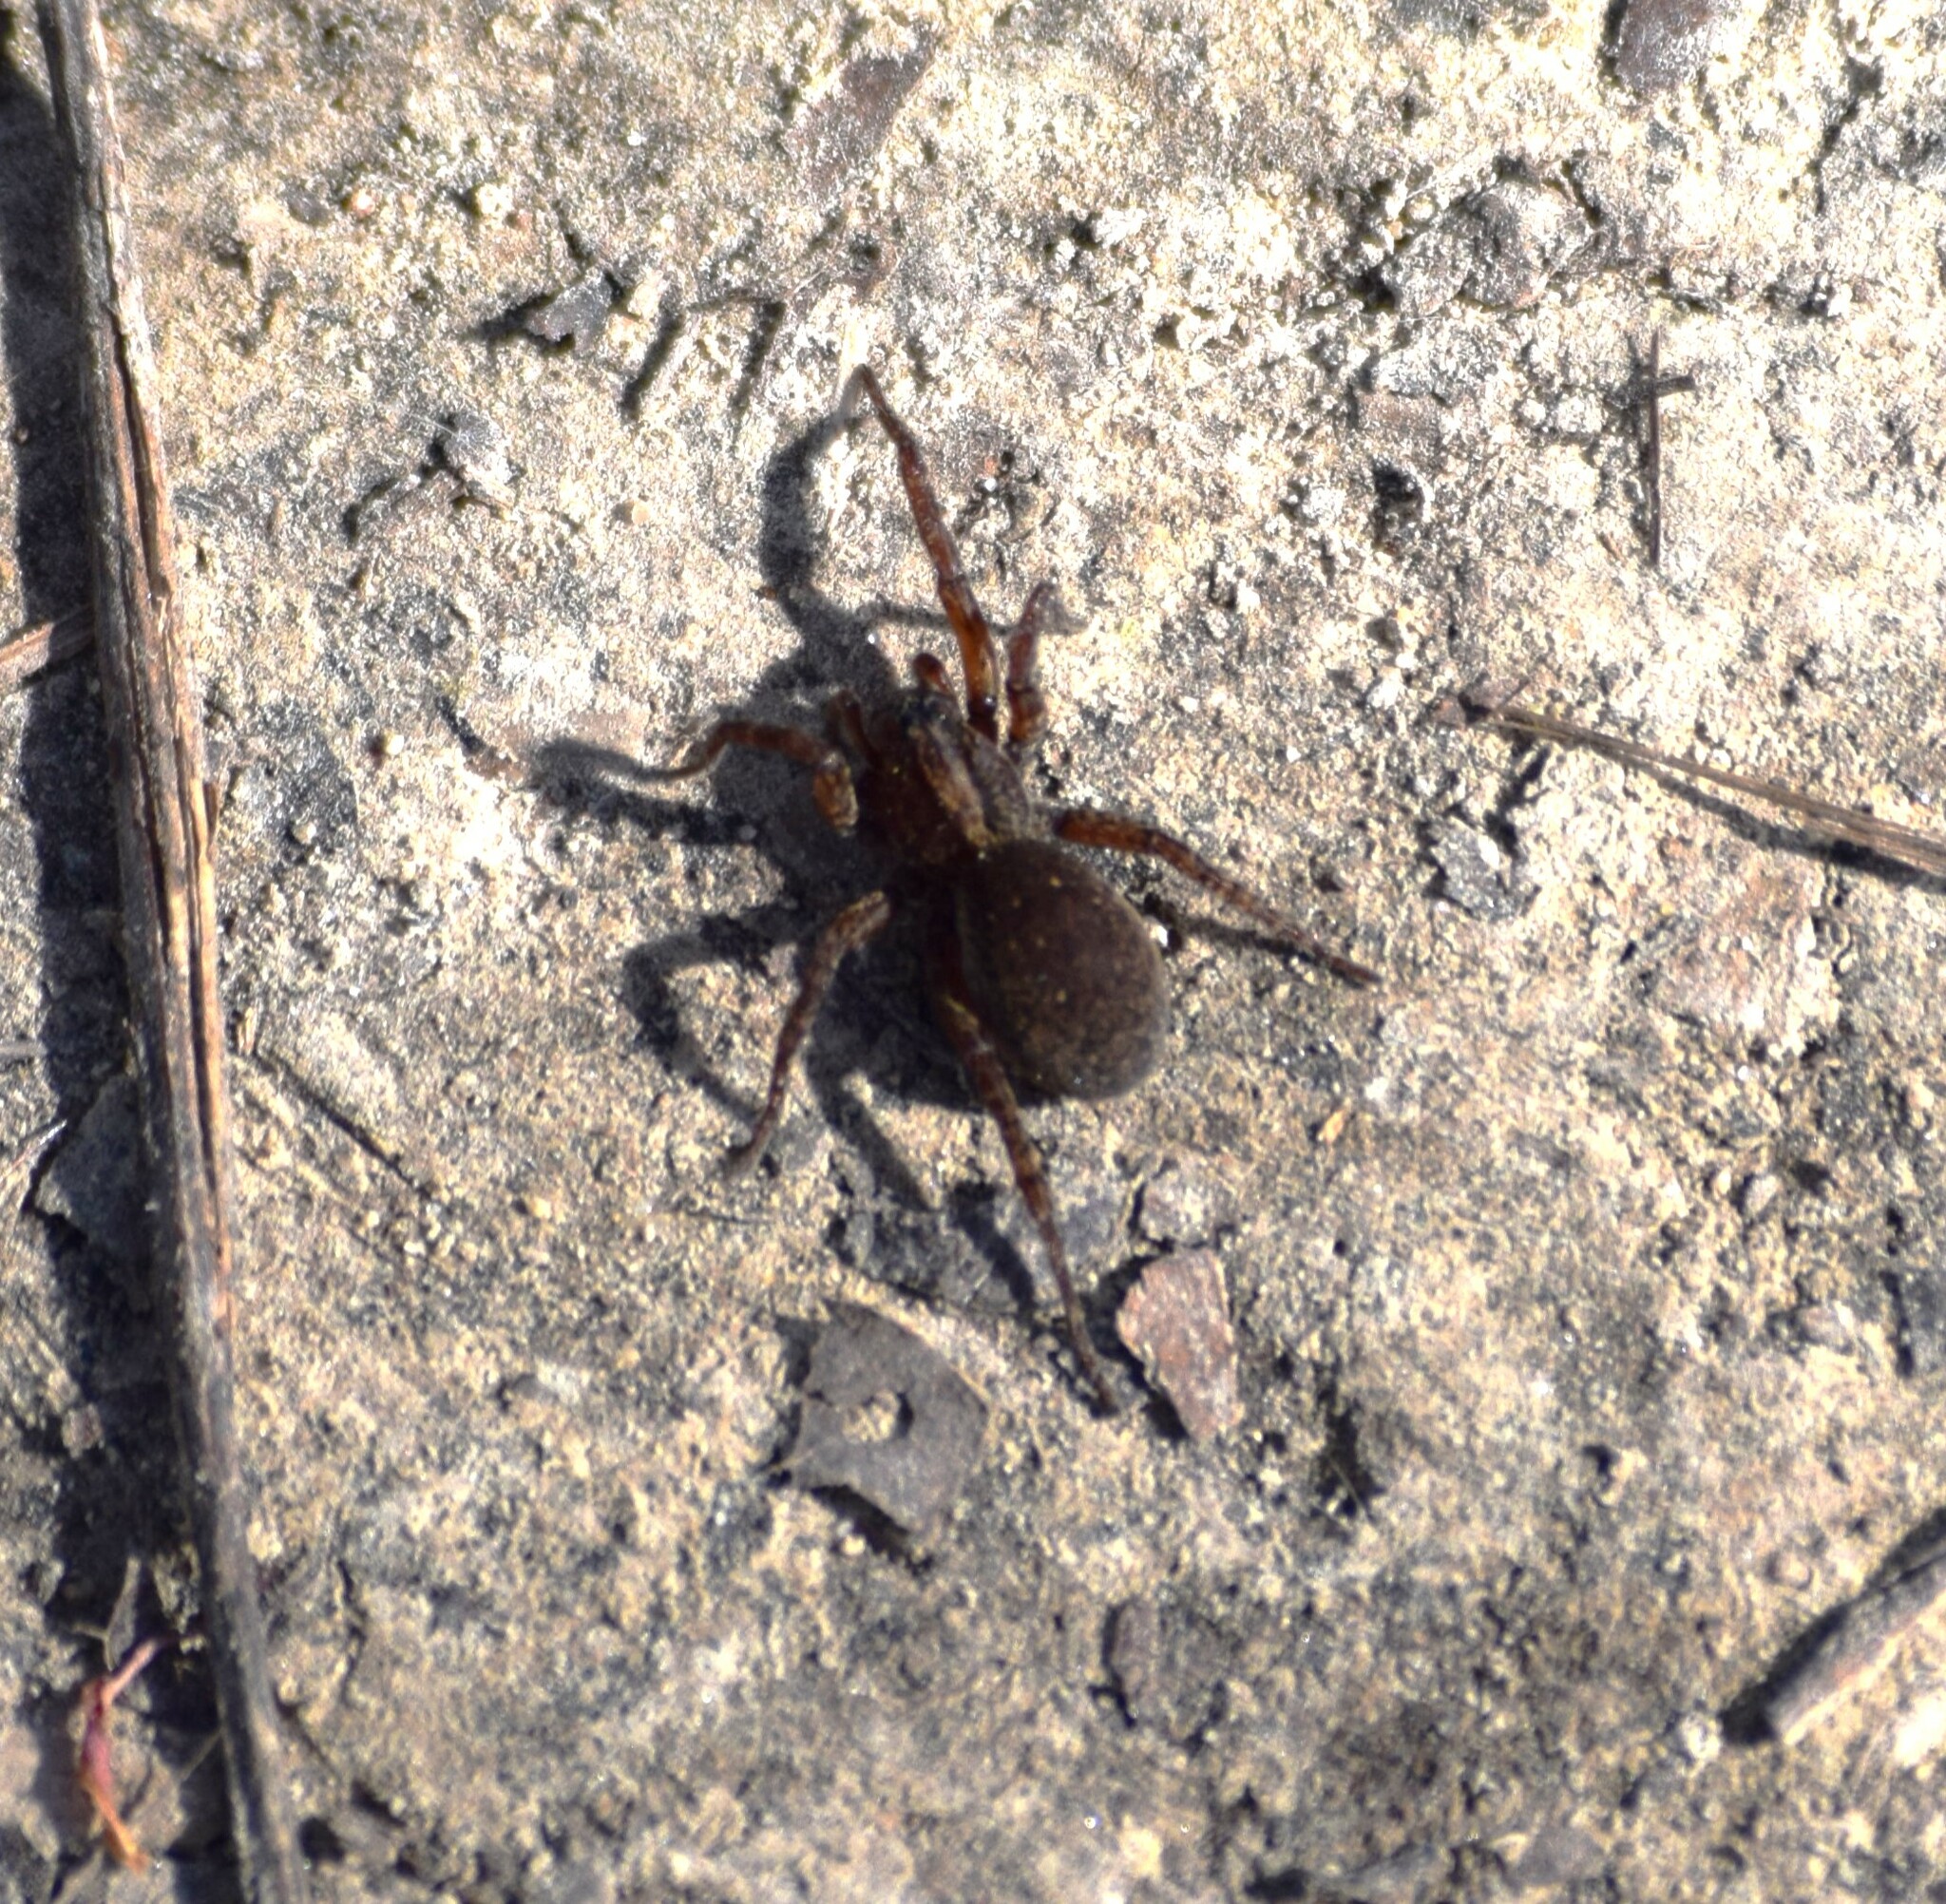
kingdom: Animalia
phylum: Arthropoda
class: Arachnida
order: Araneae
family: Lycosidae
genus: Trochosa
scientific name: Trochosa sepulchralis
